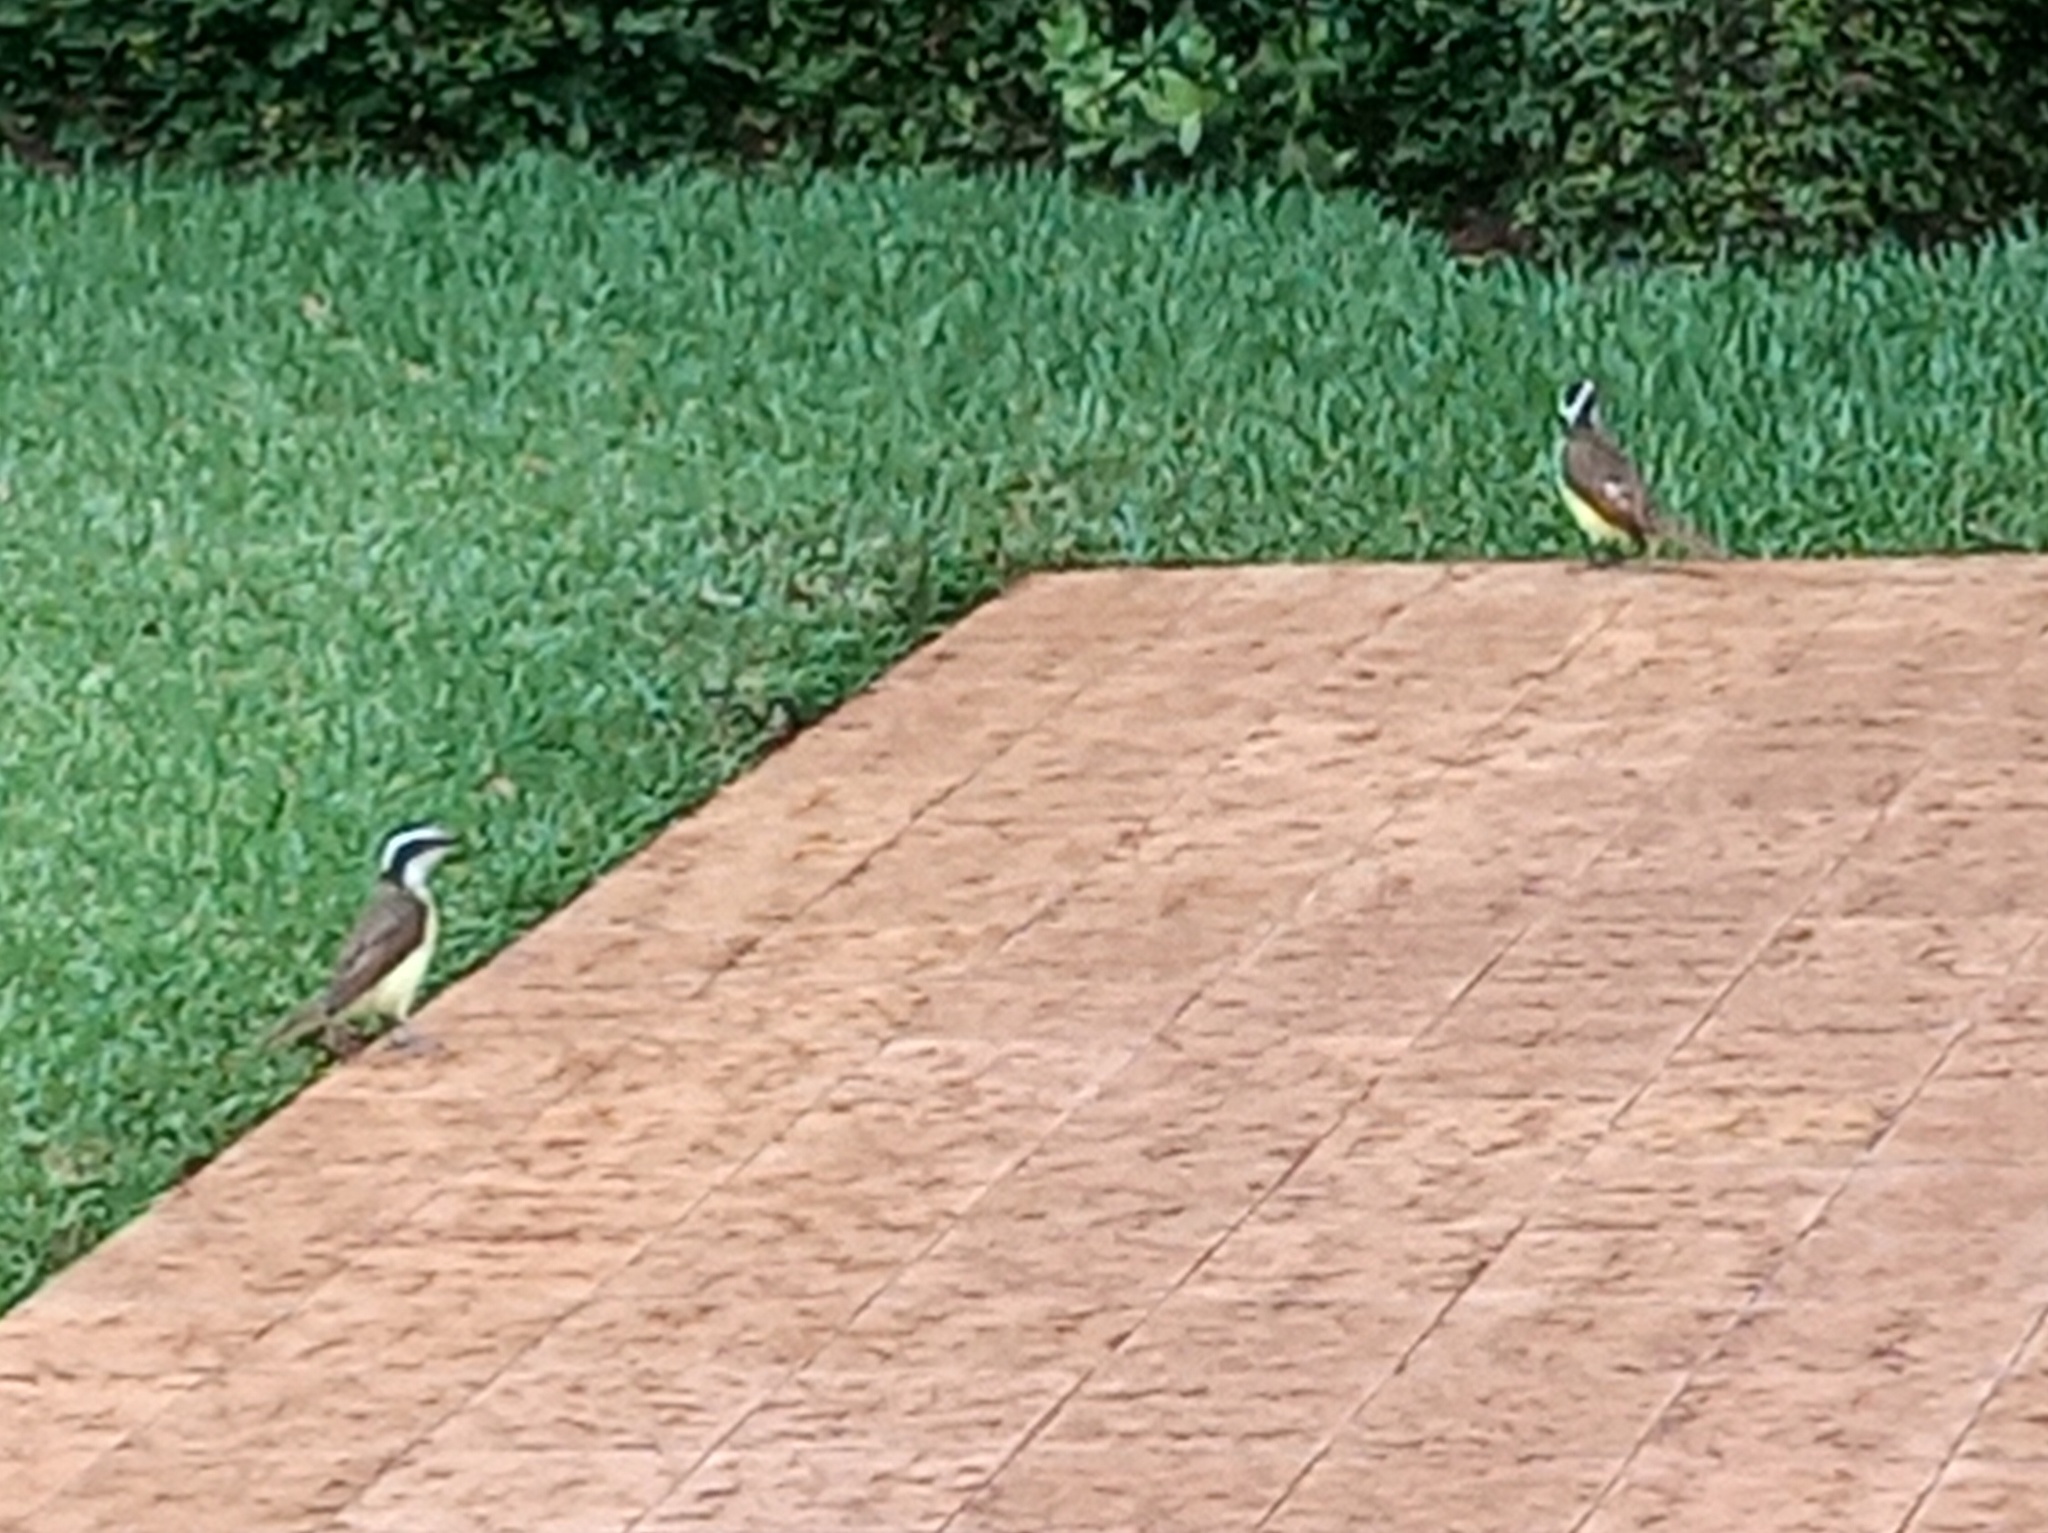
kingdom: Animalia
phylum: Chordata
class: Aves
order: Passeriformes
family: Tyrannidae
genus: Pitangus
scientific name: Pitangus sulphuratus
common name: Great kiskadee
